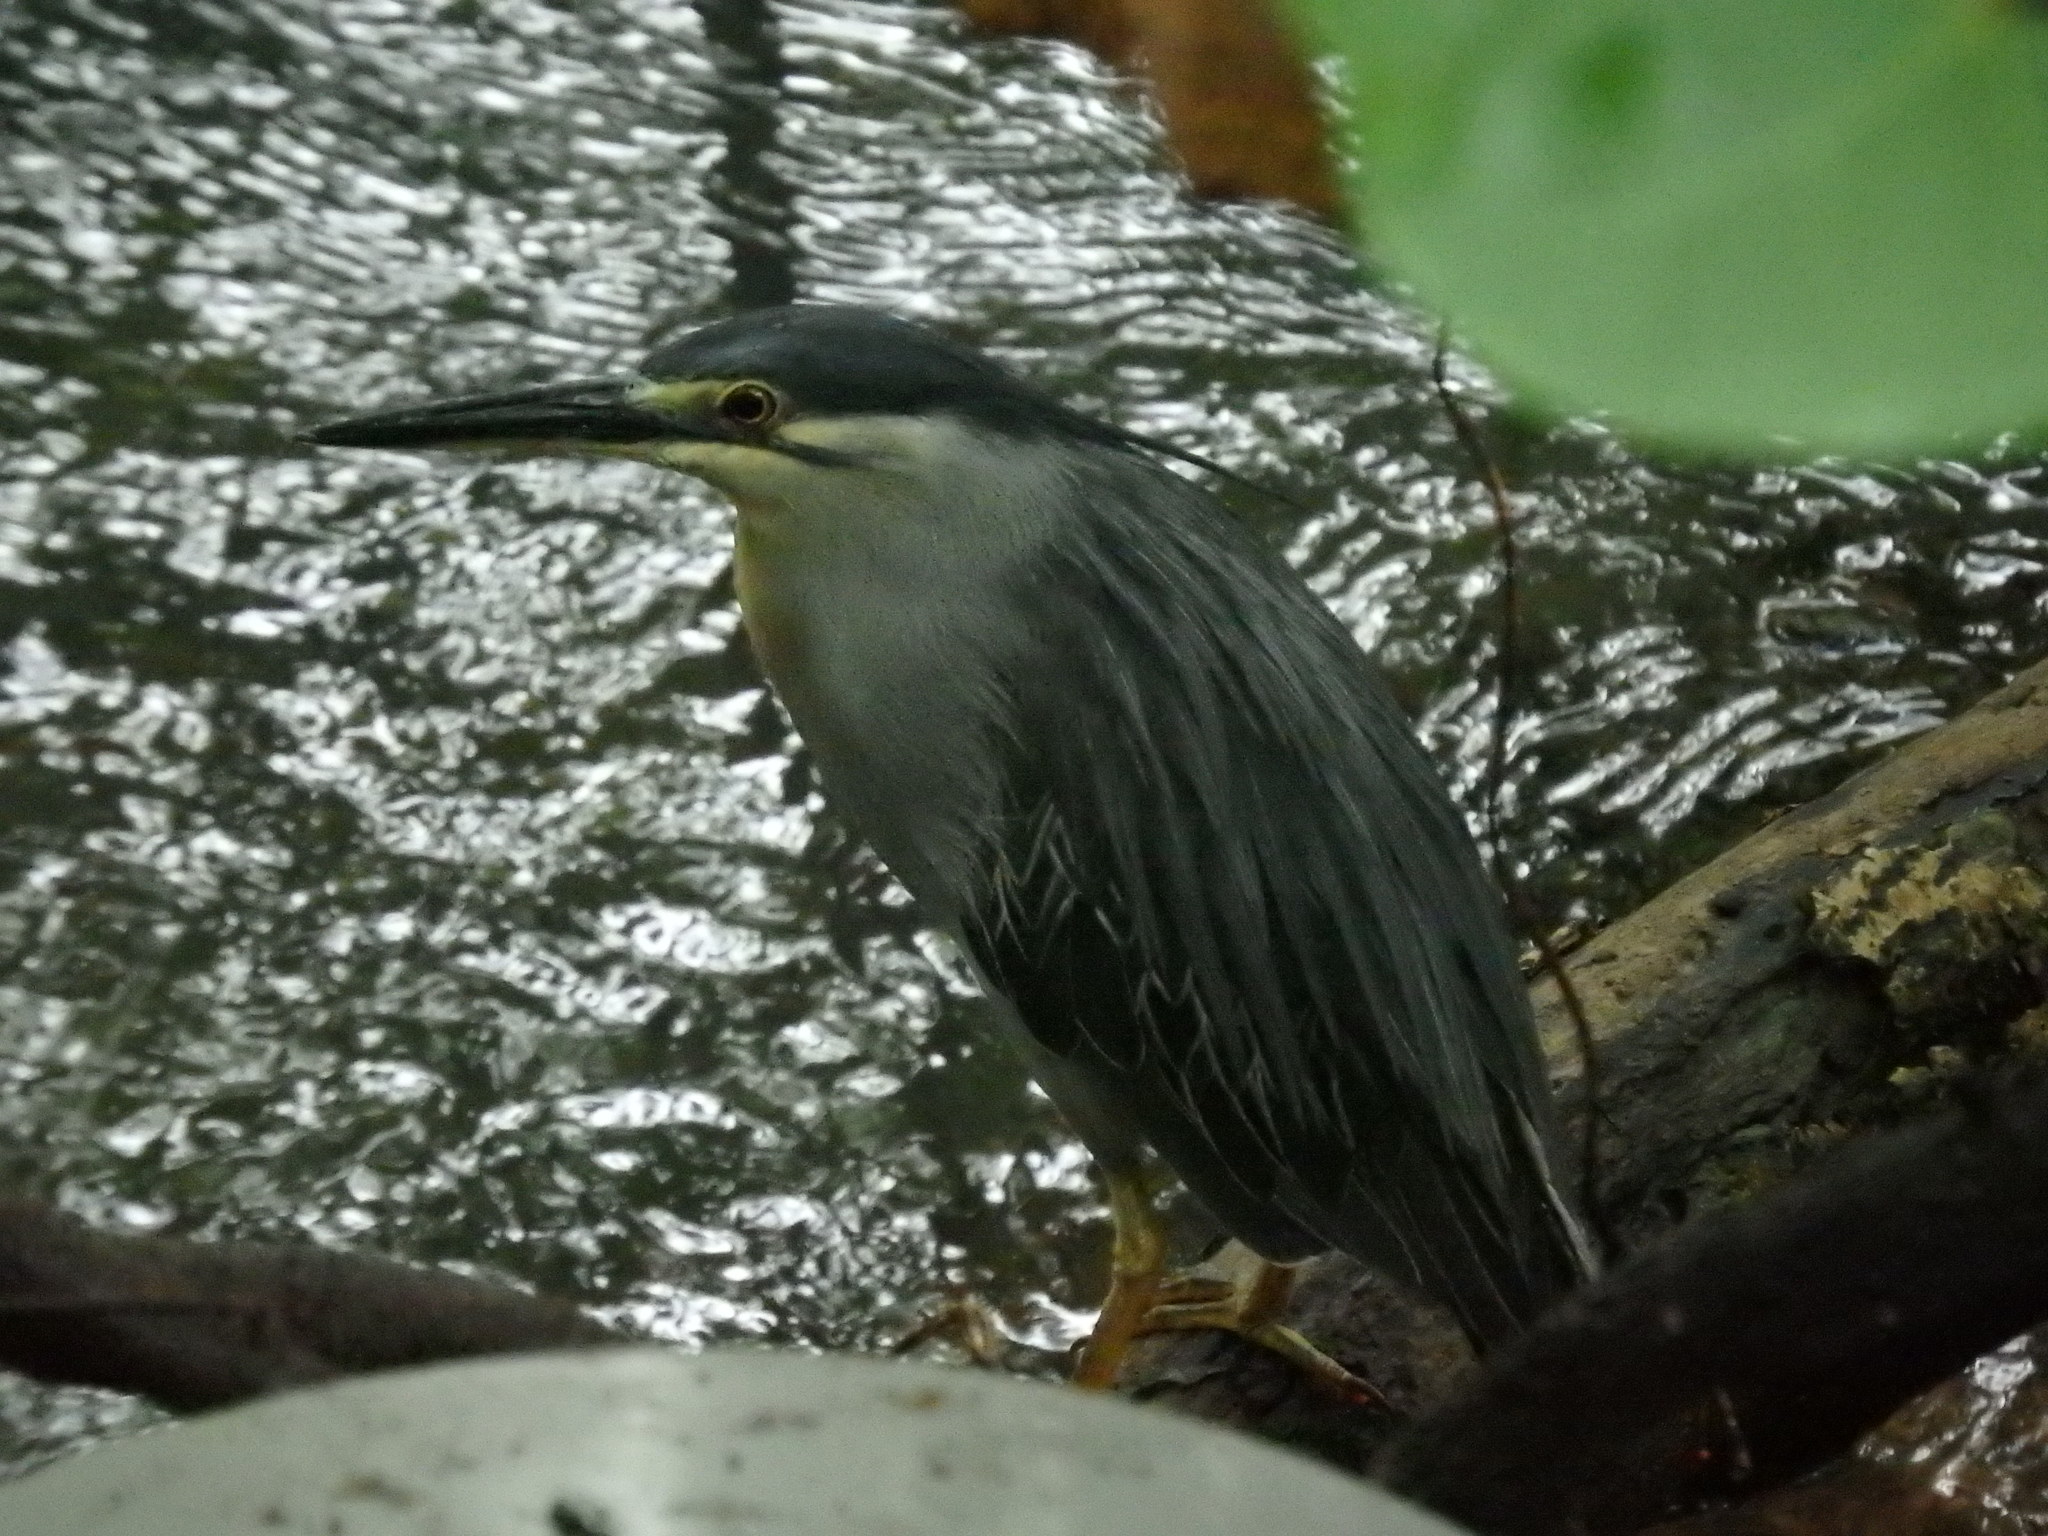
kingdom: Animalia
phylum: Chordata
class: Aves
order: Pelecaniformes
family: Ardeidae
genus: Butorides
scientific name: Butorides striata
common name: Striated heron
